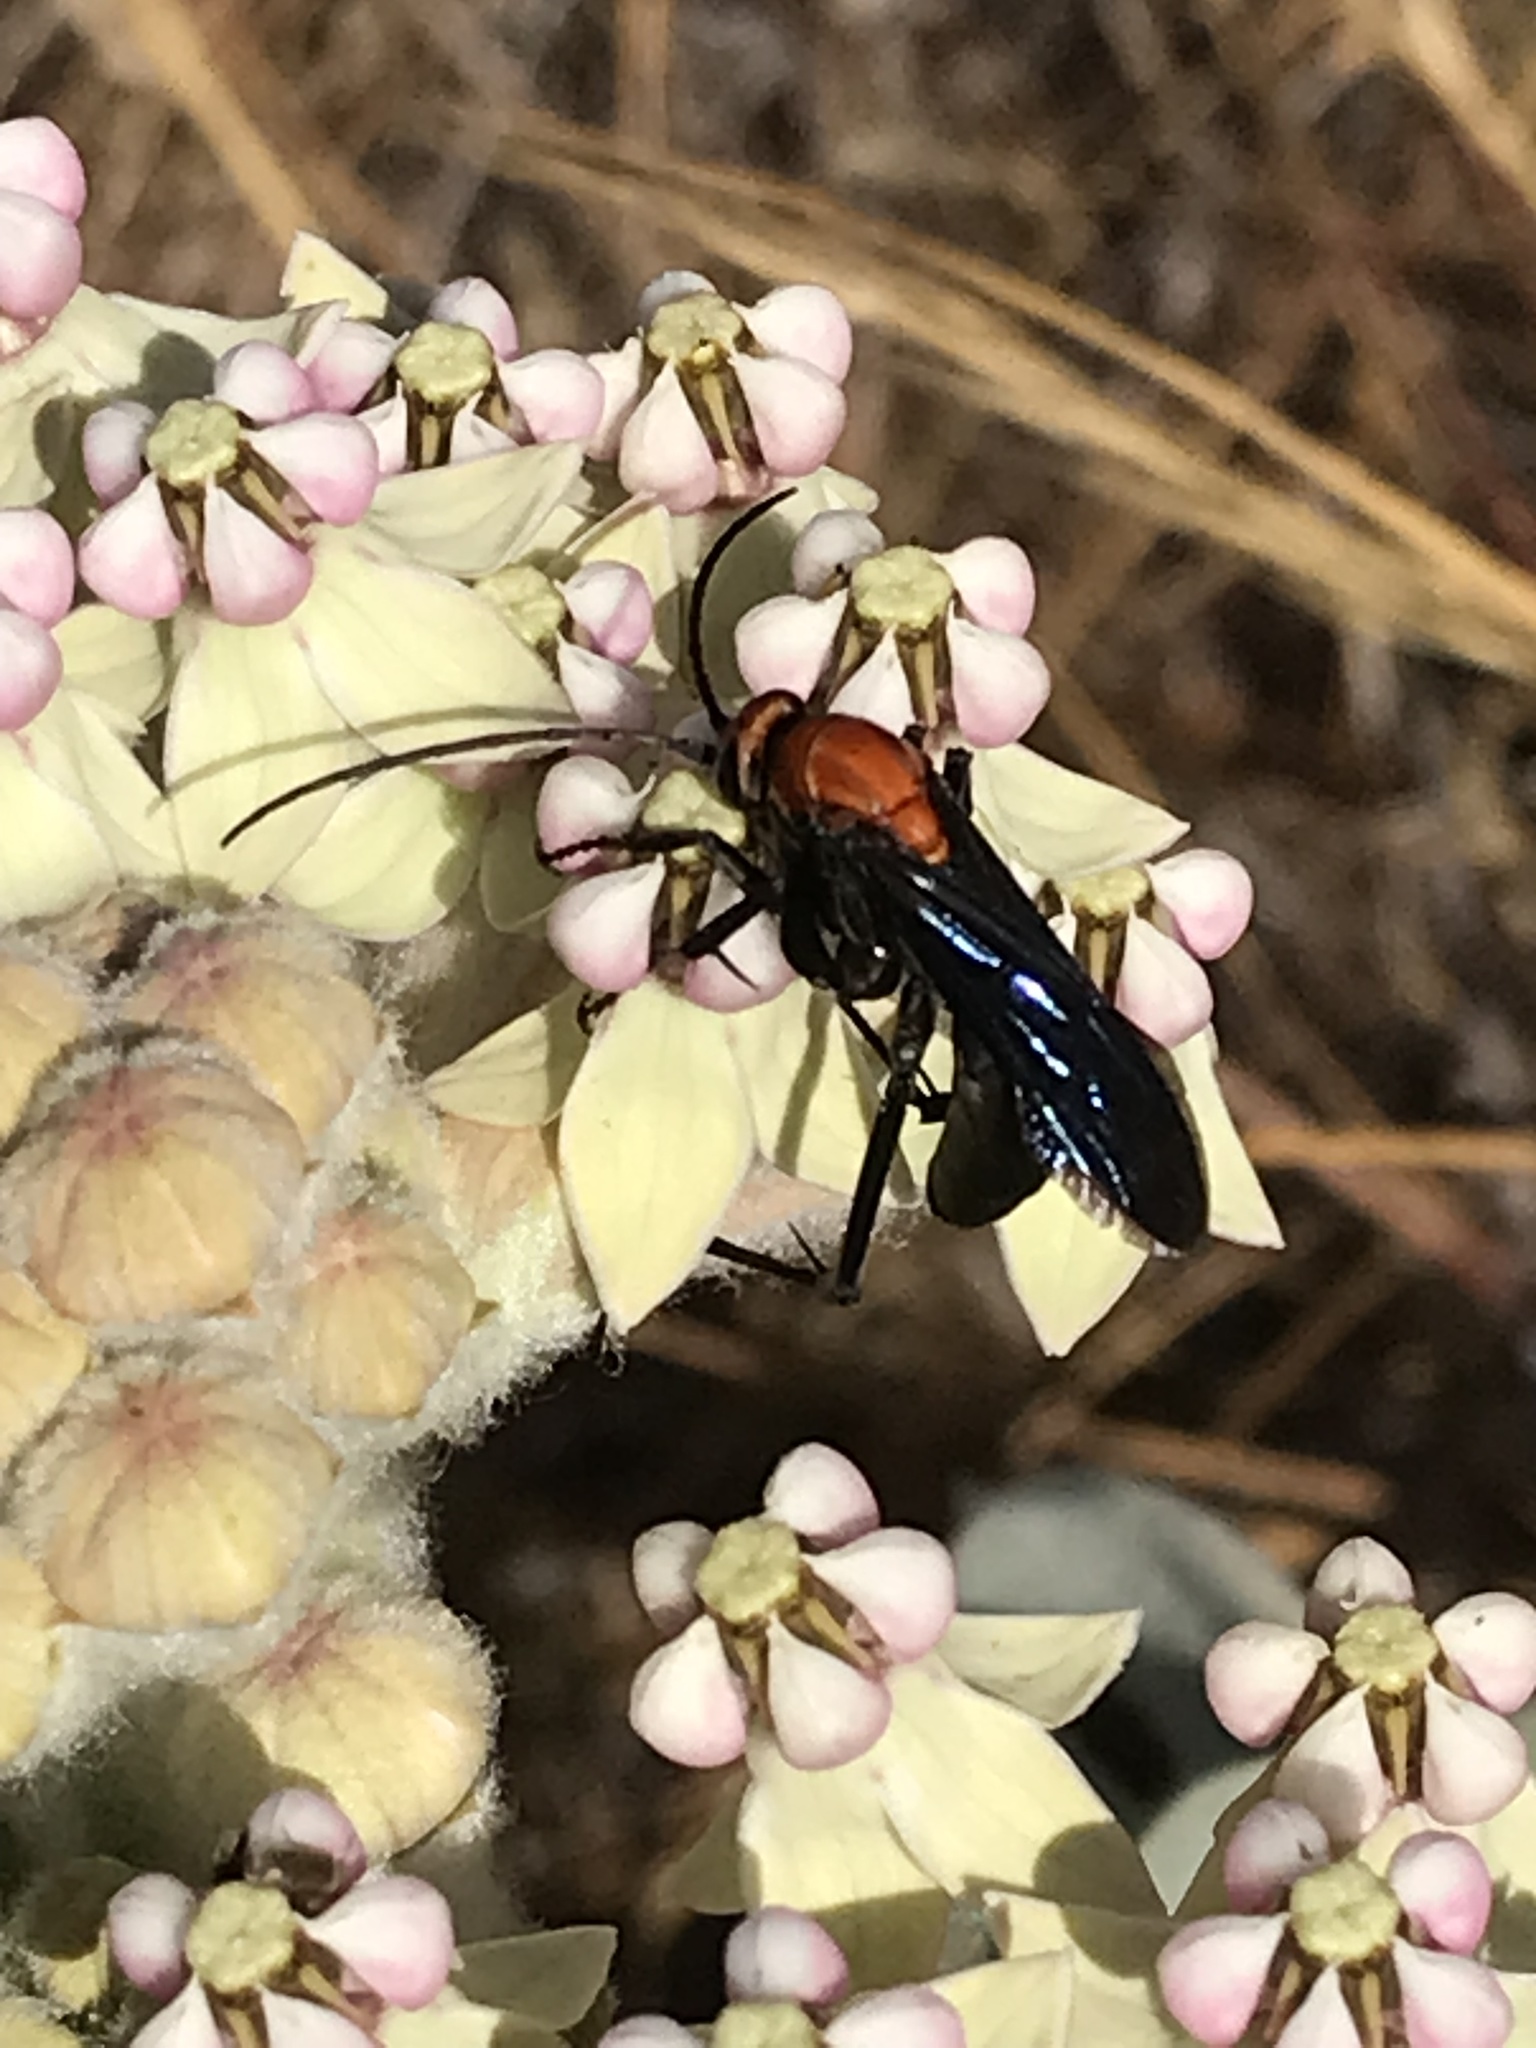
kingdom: Animalia
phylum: Arthropoda
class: Insecta
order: Hymenoptera
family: Pompilidae
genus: Notocyphus
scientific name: Notocyphus dorsalis
